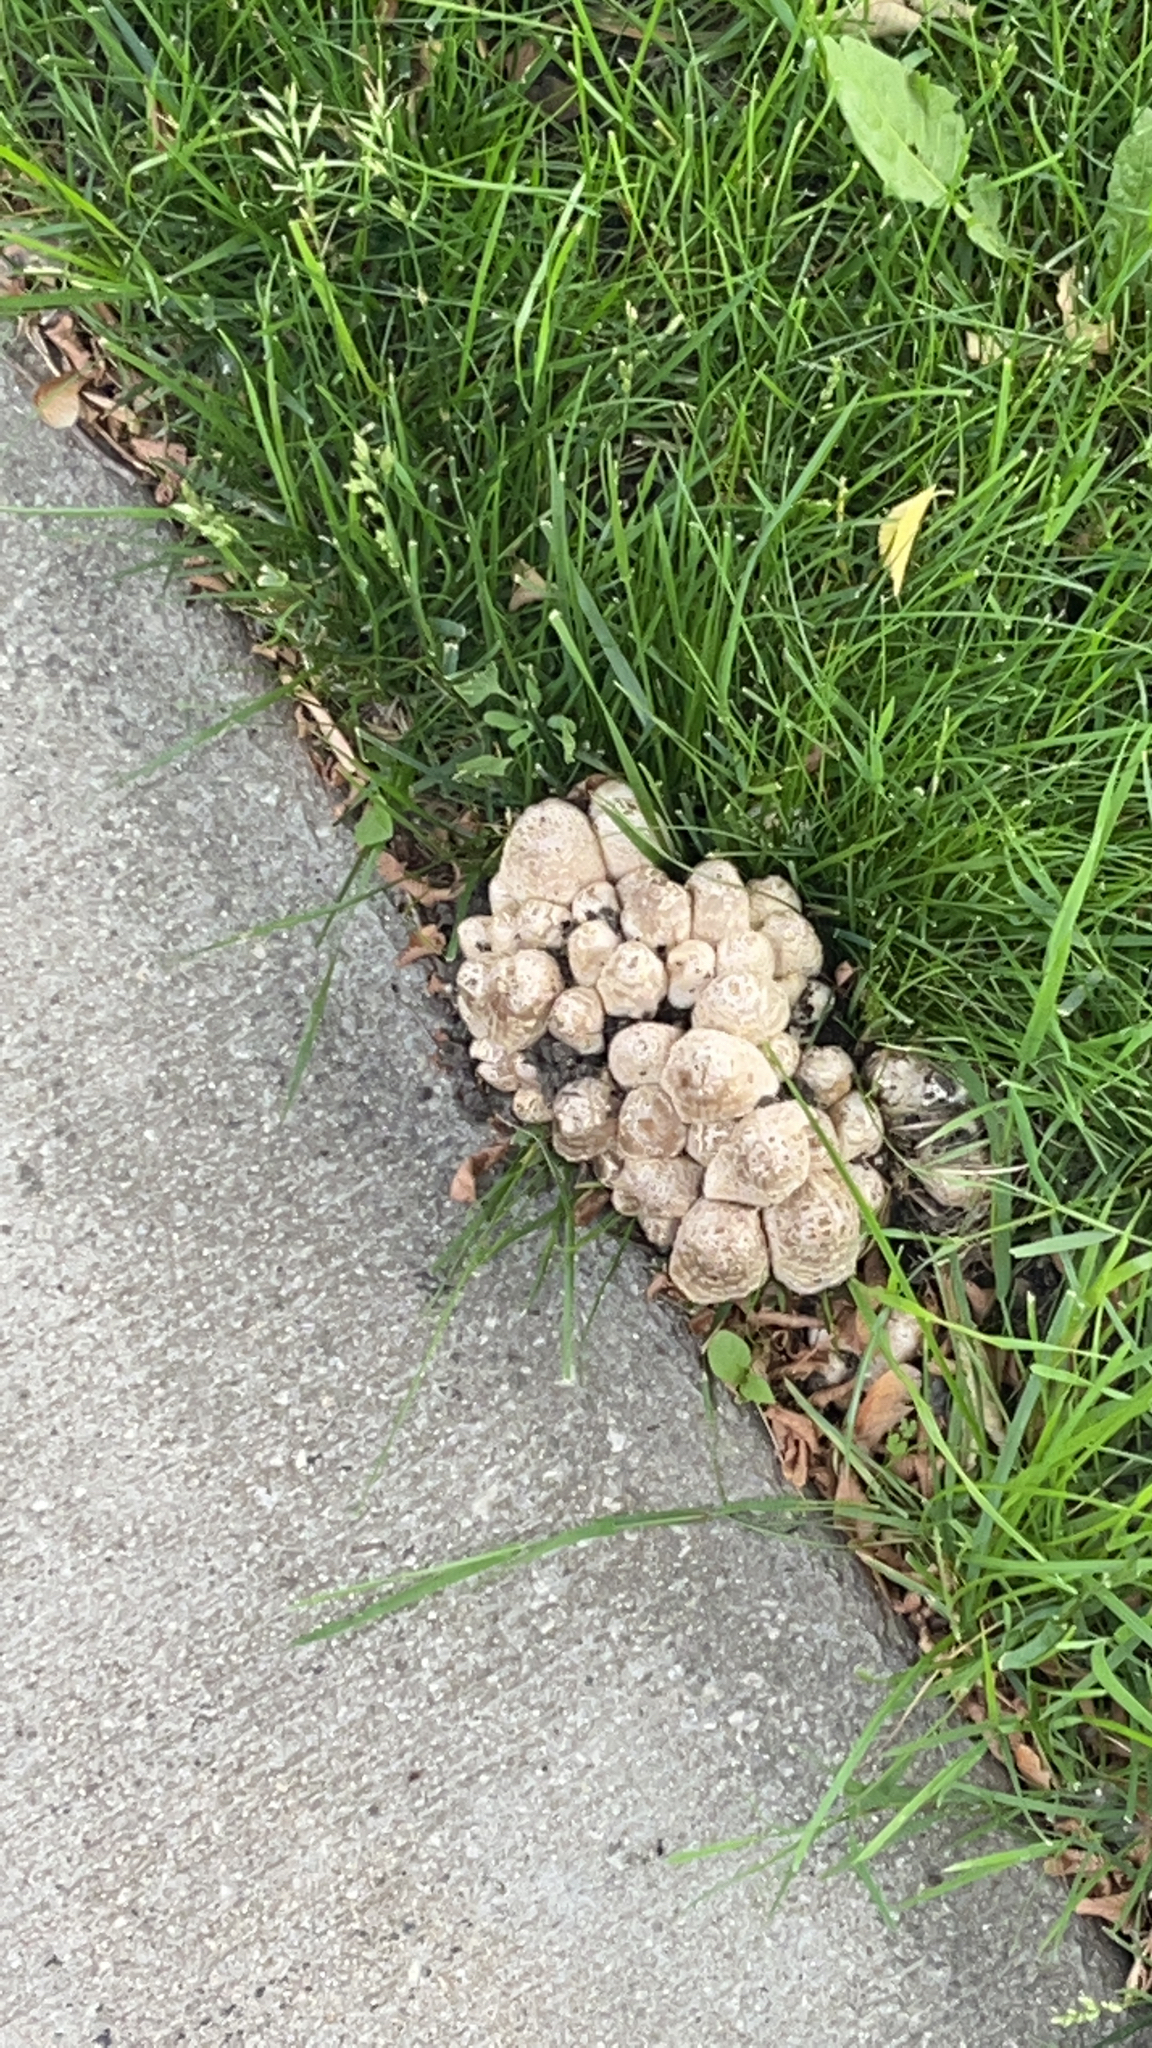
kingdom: Fungi
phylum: Basidiomycota
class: Agaricomycetes
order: Agaricales
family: Psathyrellaceae
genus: Coprinopsis
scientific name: Coprinopsis variegata
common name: Scaly ink cap
